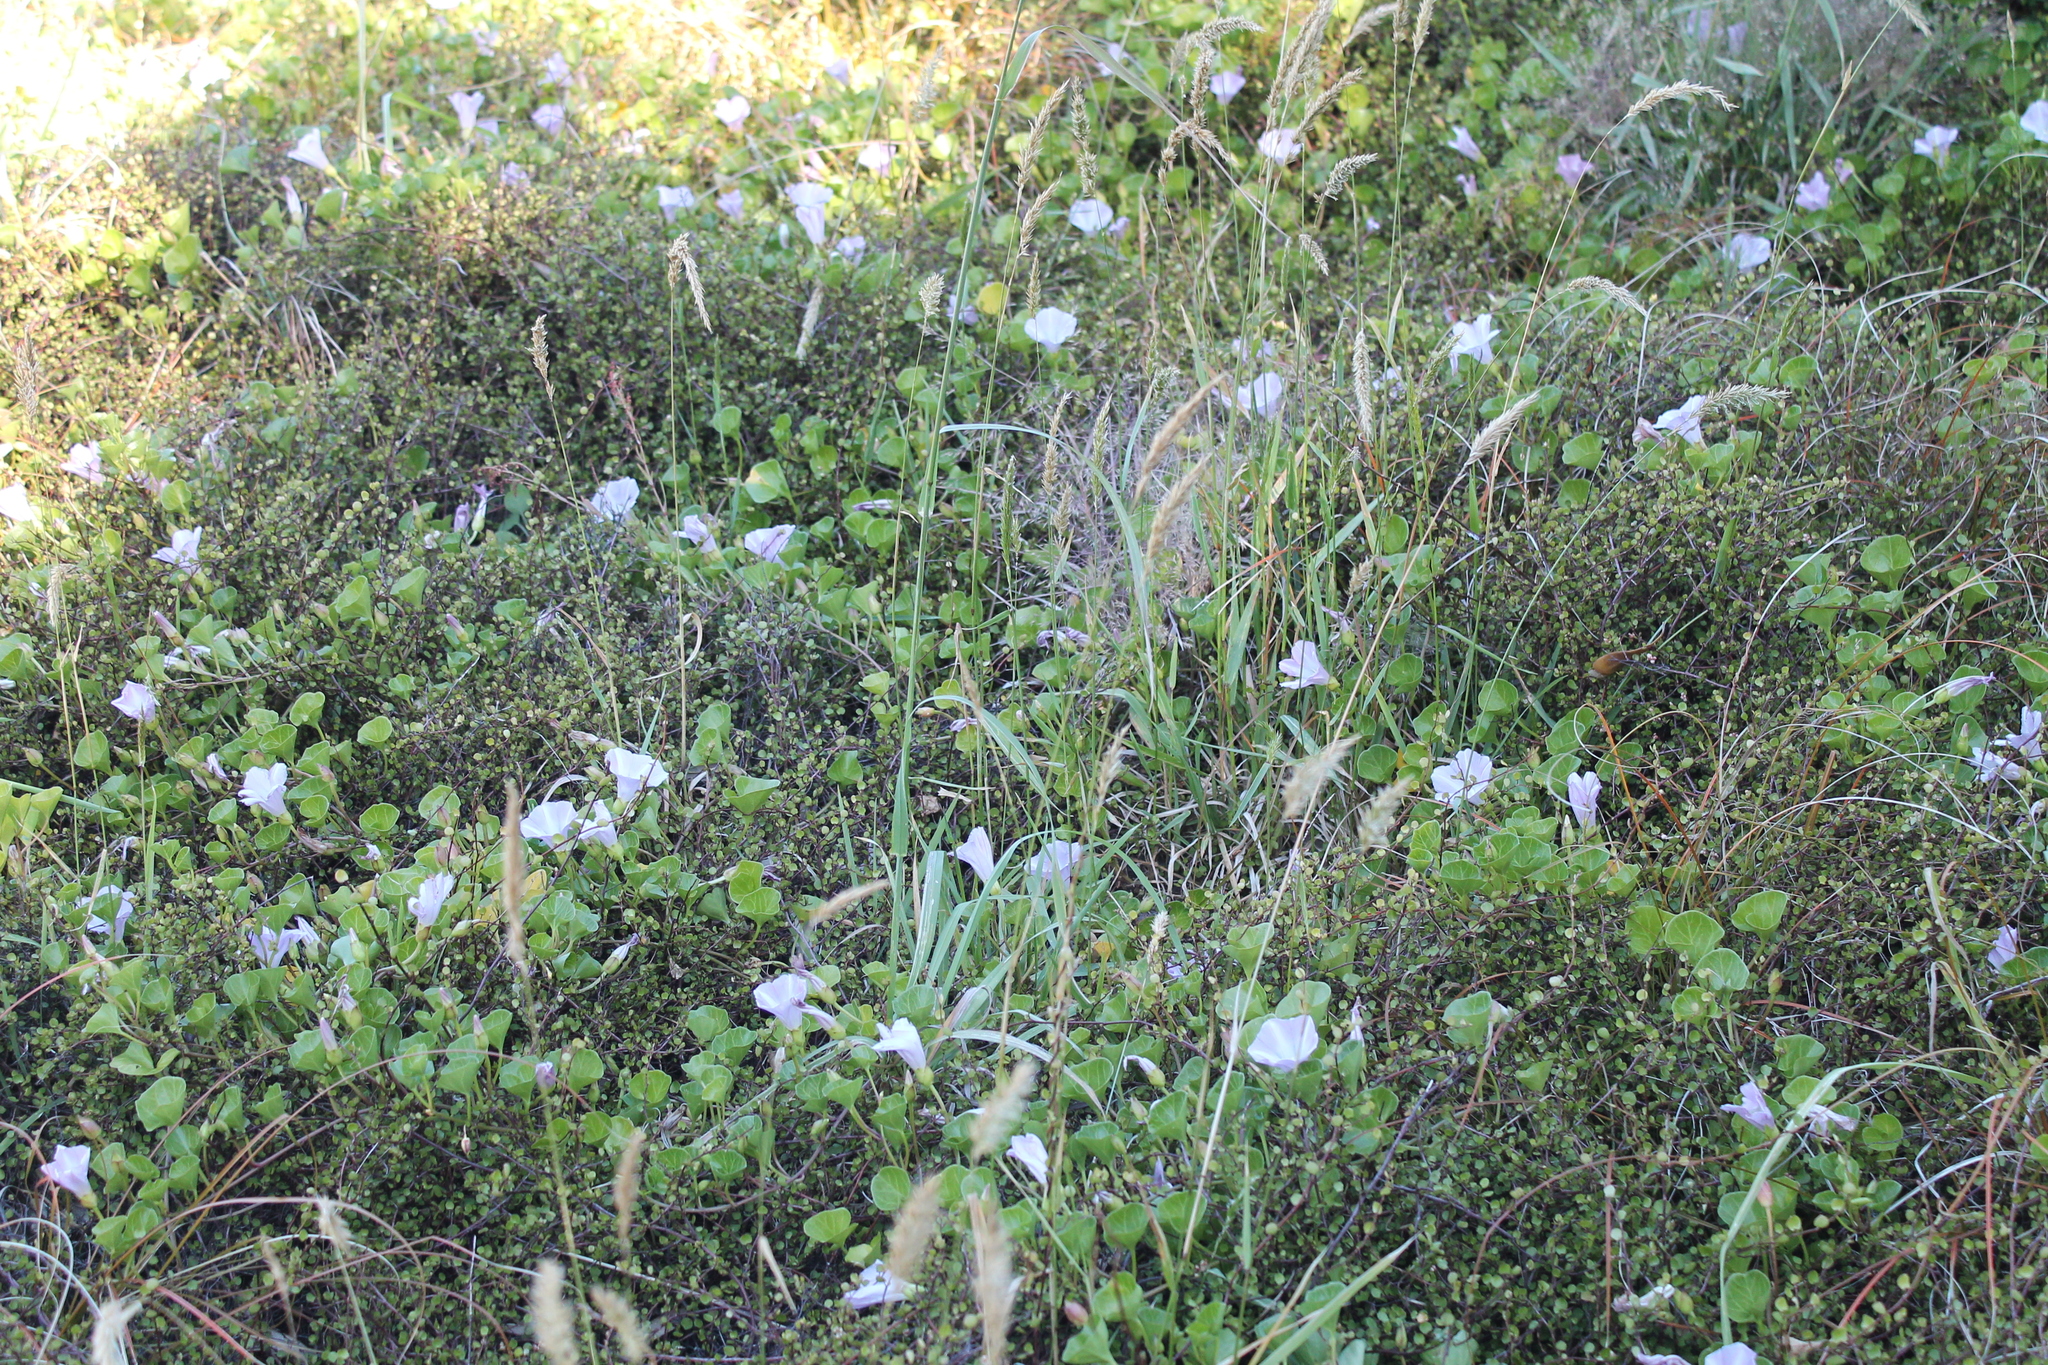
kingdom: Plantae
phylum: Tracheophyta
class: Magnoliopsida
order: Solanales
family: Convolvulaceae
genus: Calystegia
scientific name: Calystegia soldanella
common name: Sea bindweed
